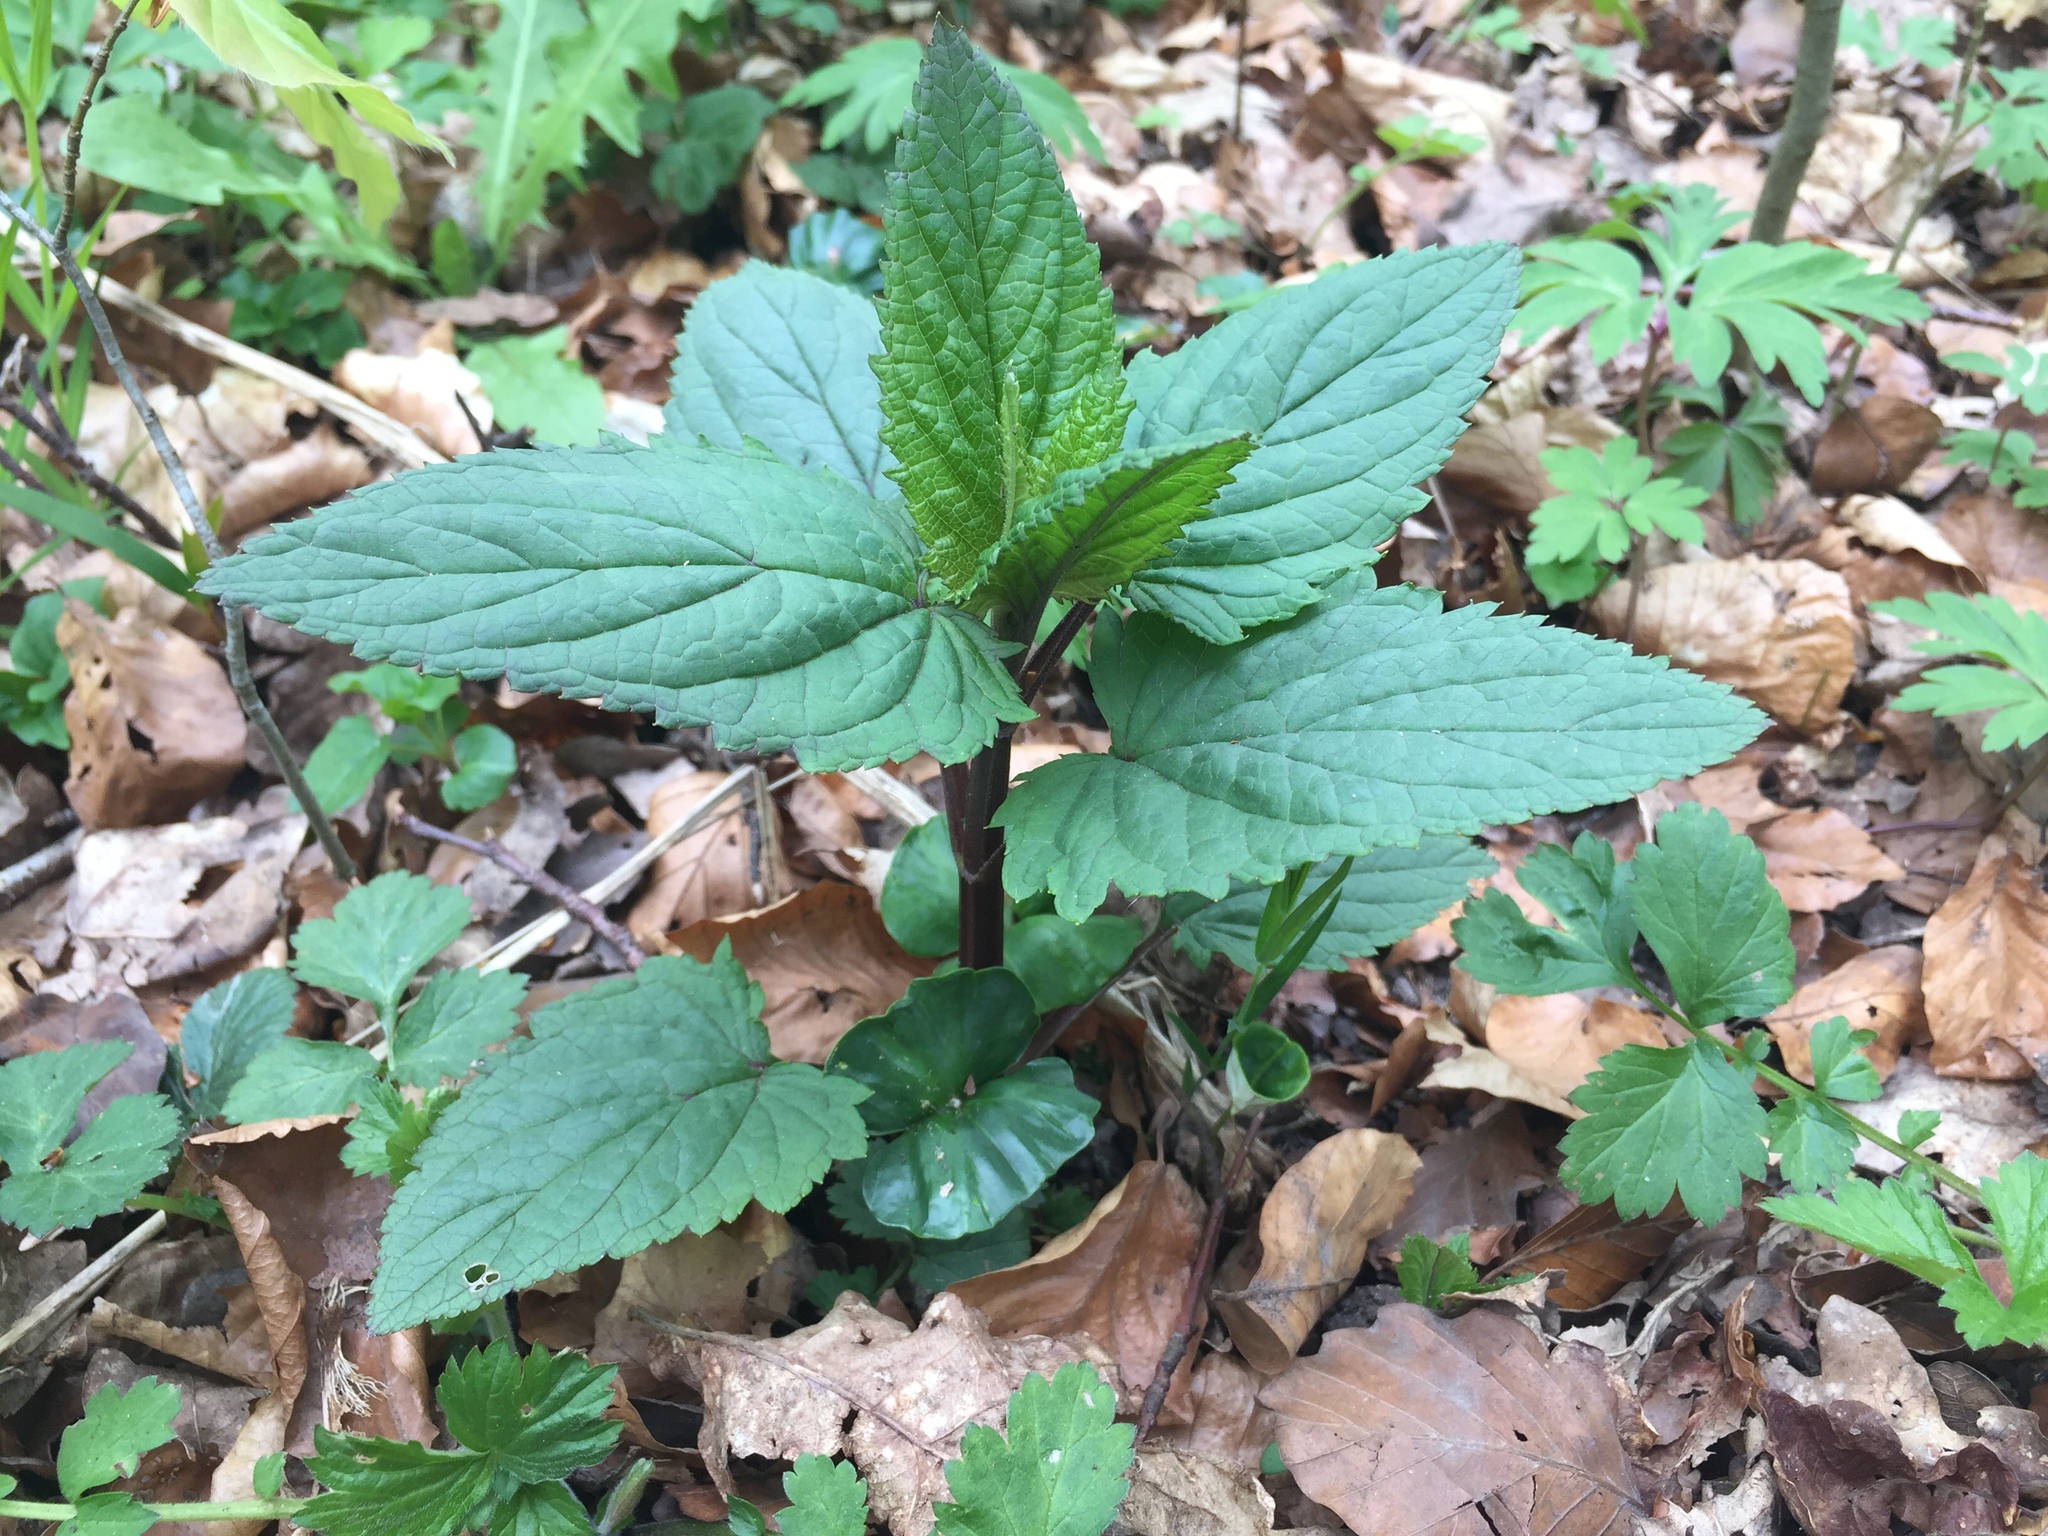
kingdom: Plantae
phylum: Tracheophyta
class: Magnoliopsida
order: Lamiales
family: Scrophulariaceae
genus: Scrophularia
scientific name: Scrophularia nodosa
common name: Common figwort
